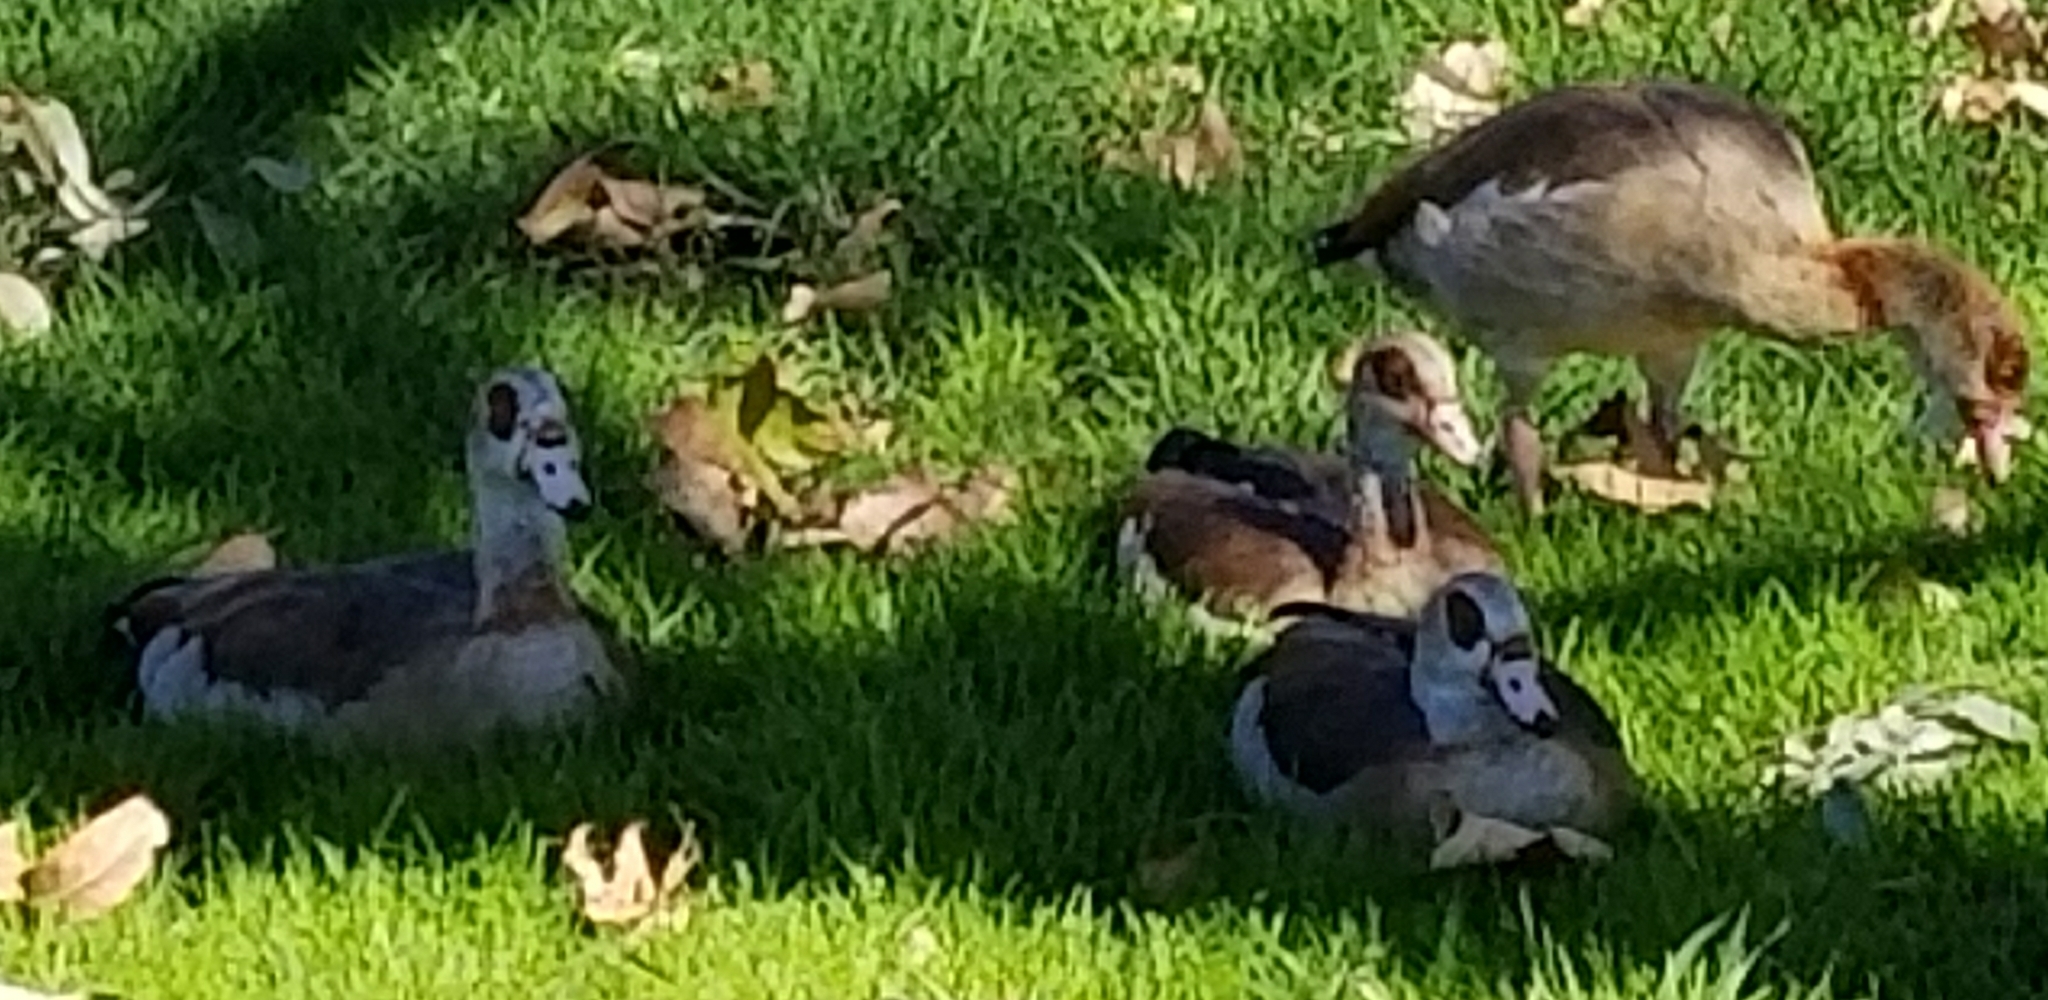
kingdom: Animalia
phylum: Chordata
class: Aves
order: Anseriformes
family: Anatidae
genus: Alopochen
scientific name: Alopochen aegyptiaca
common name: Egyptian goose
